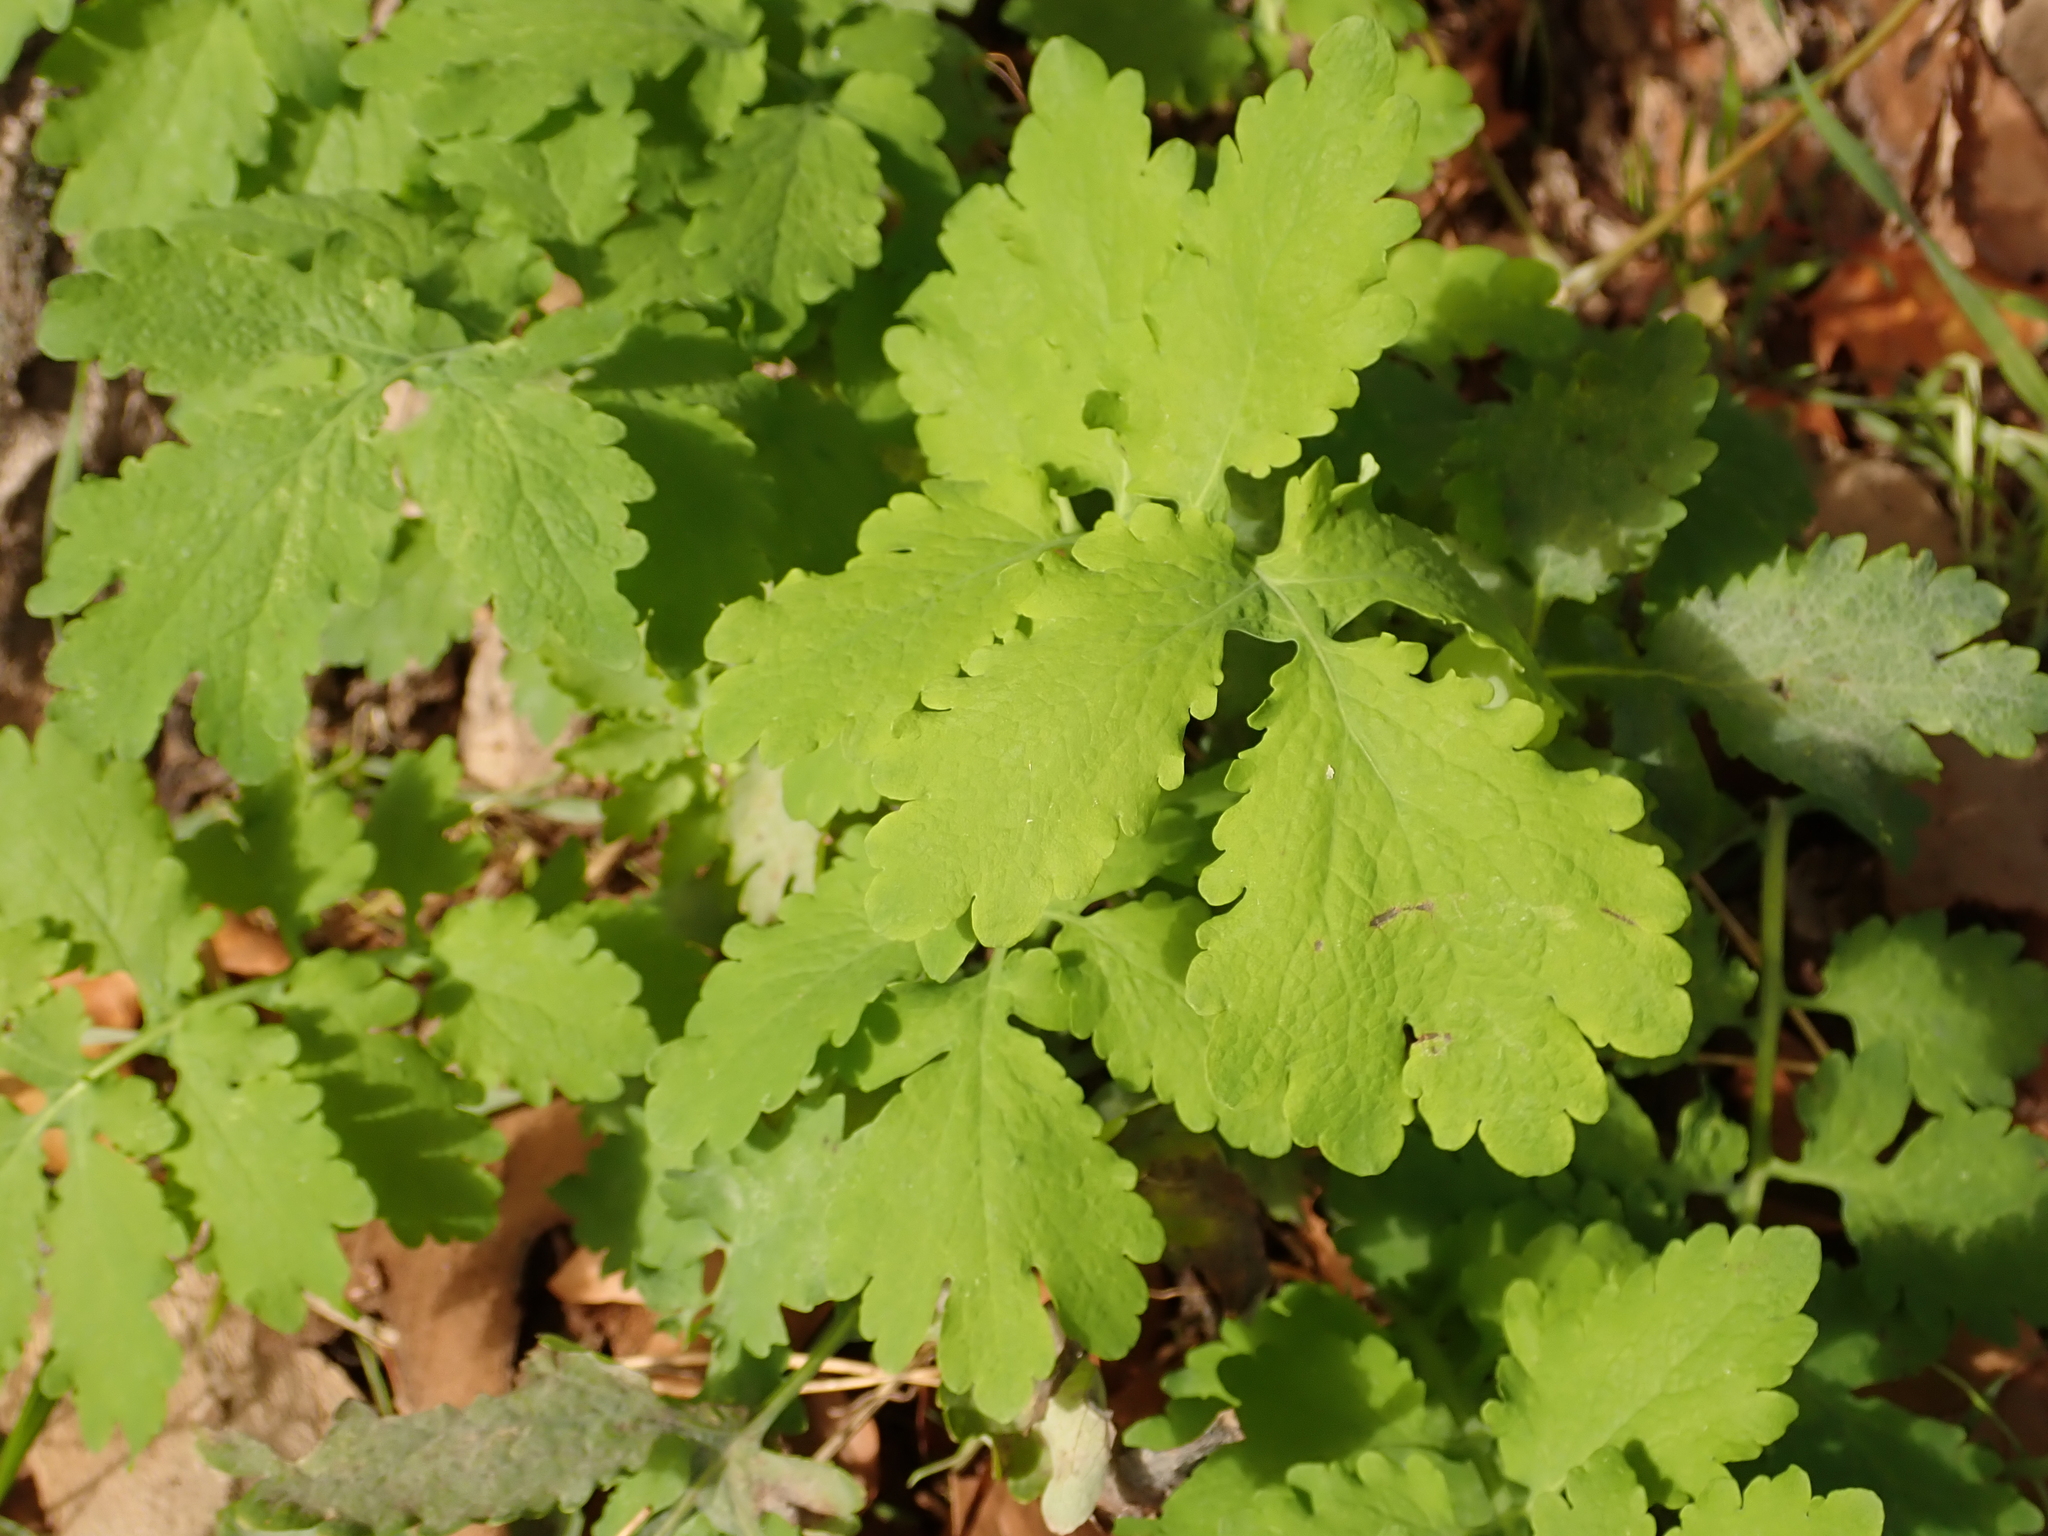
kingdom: Plantae
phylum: Tracheophyta
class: Magnoliopsida
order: Ranunculales
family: Papaveraceae
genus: Chelidonium
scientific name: Chelidonium majus
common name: Greater celandine
